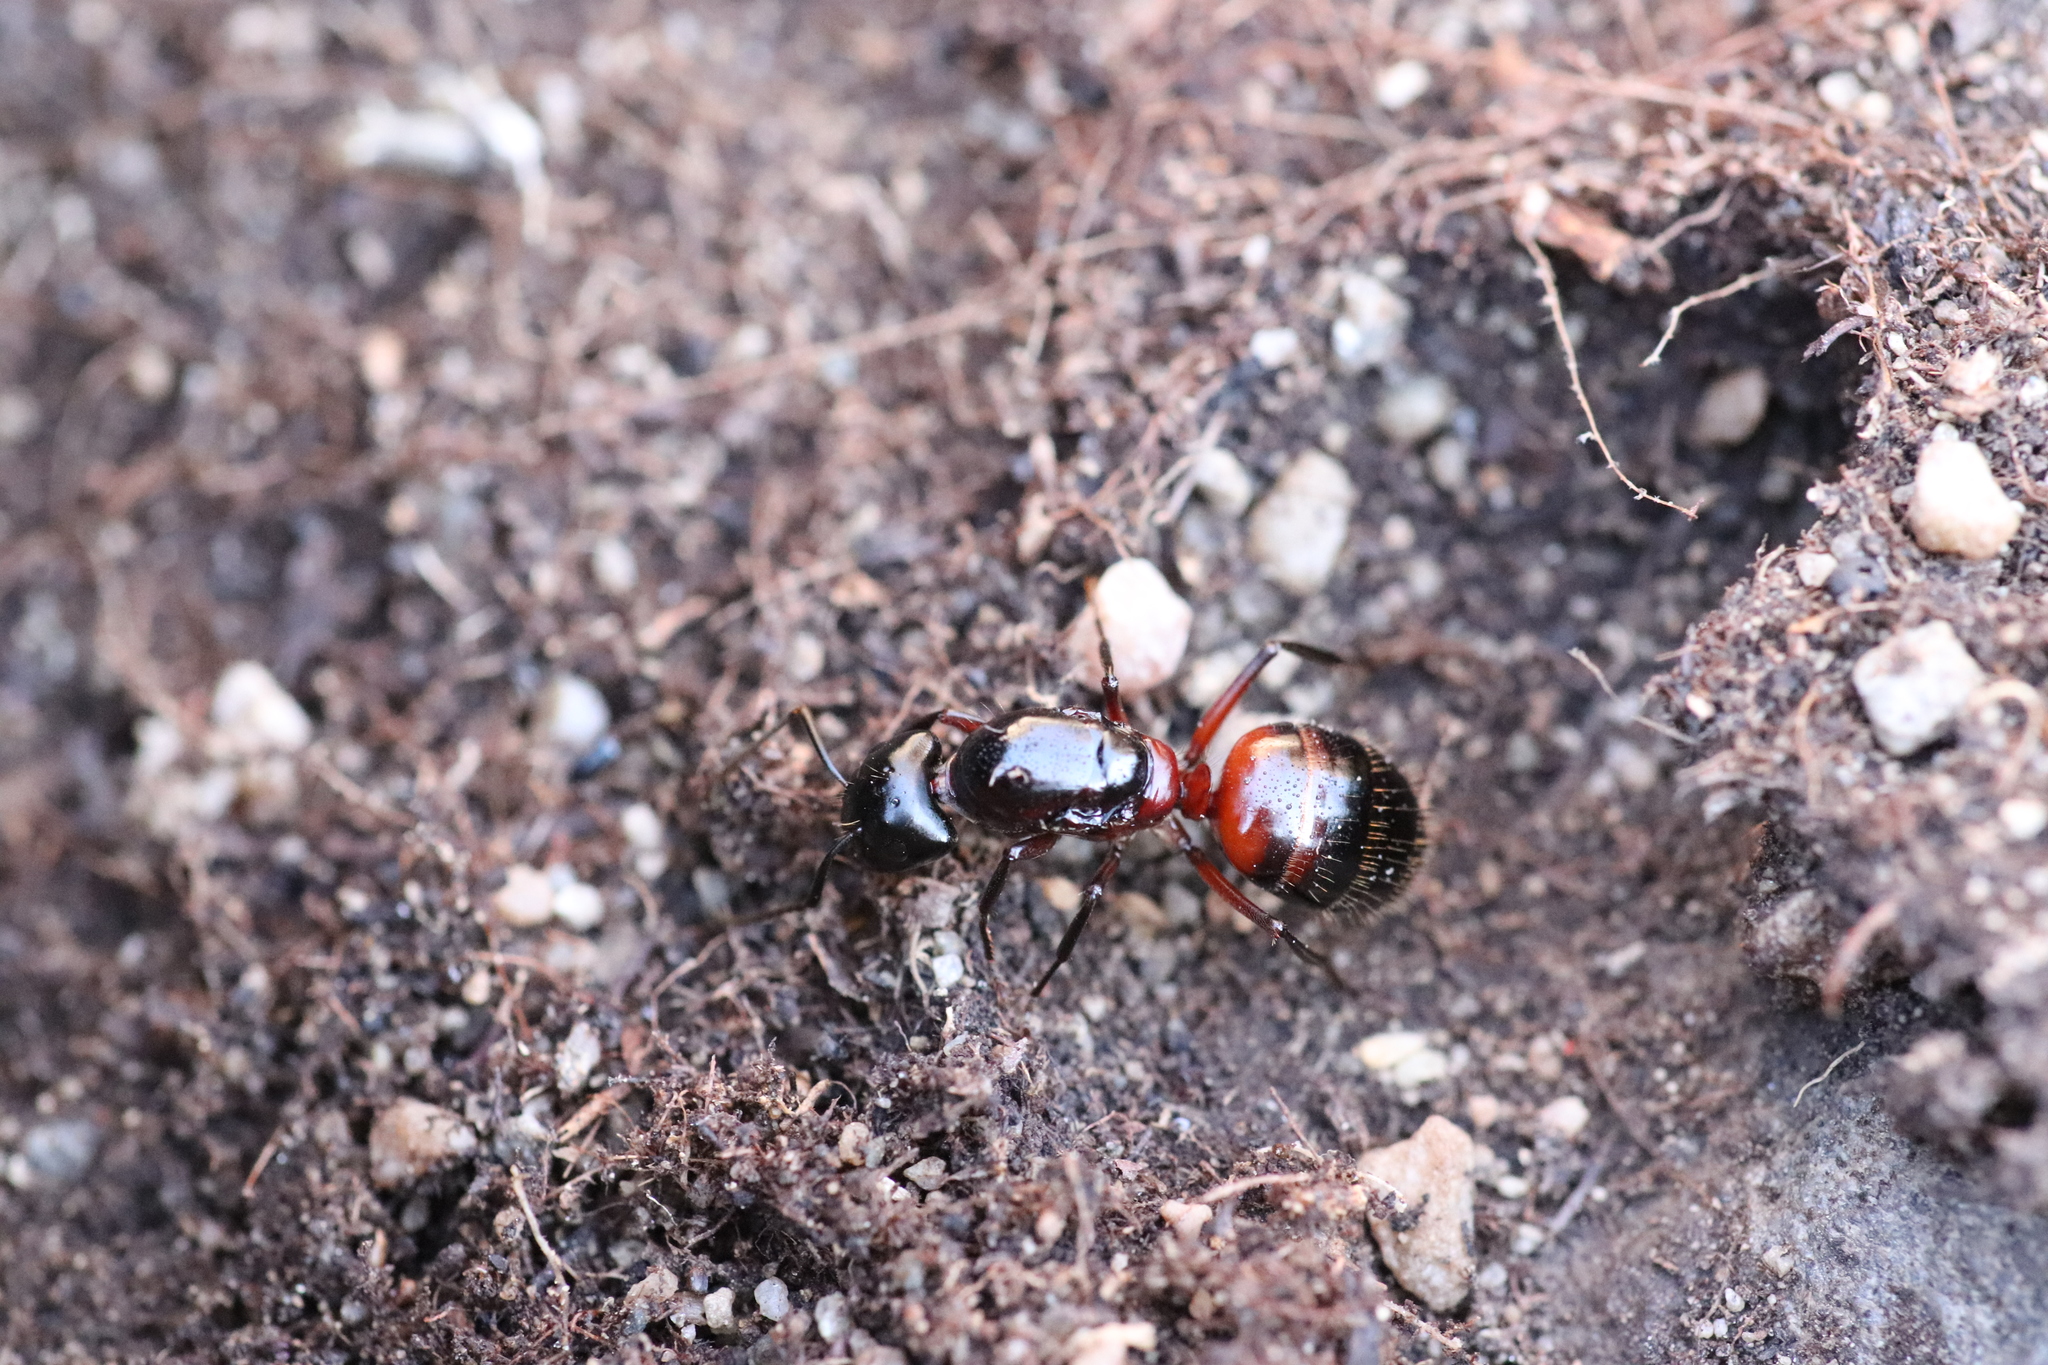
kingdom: Animalia
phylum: Arthropoda
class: Insecta
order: Hymenoptera
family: Formicidae
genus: Camponotus
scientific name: Camponotus ligniperdus
